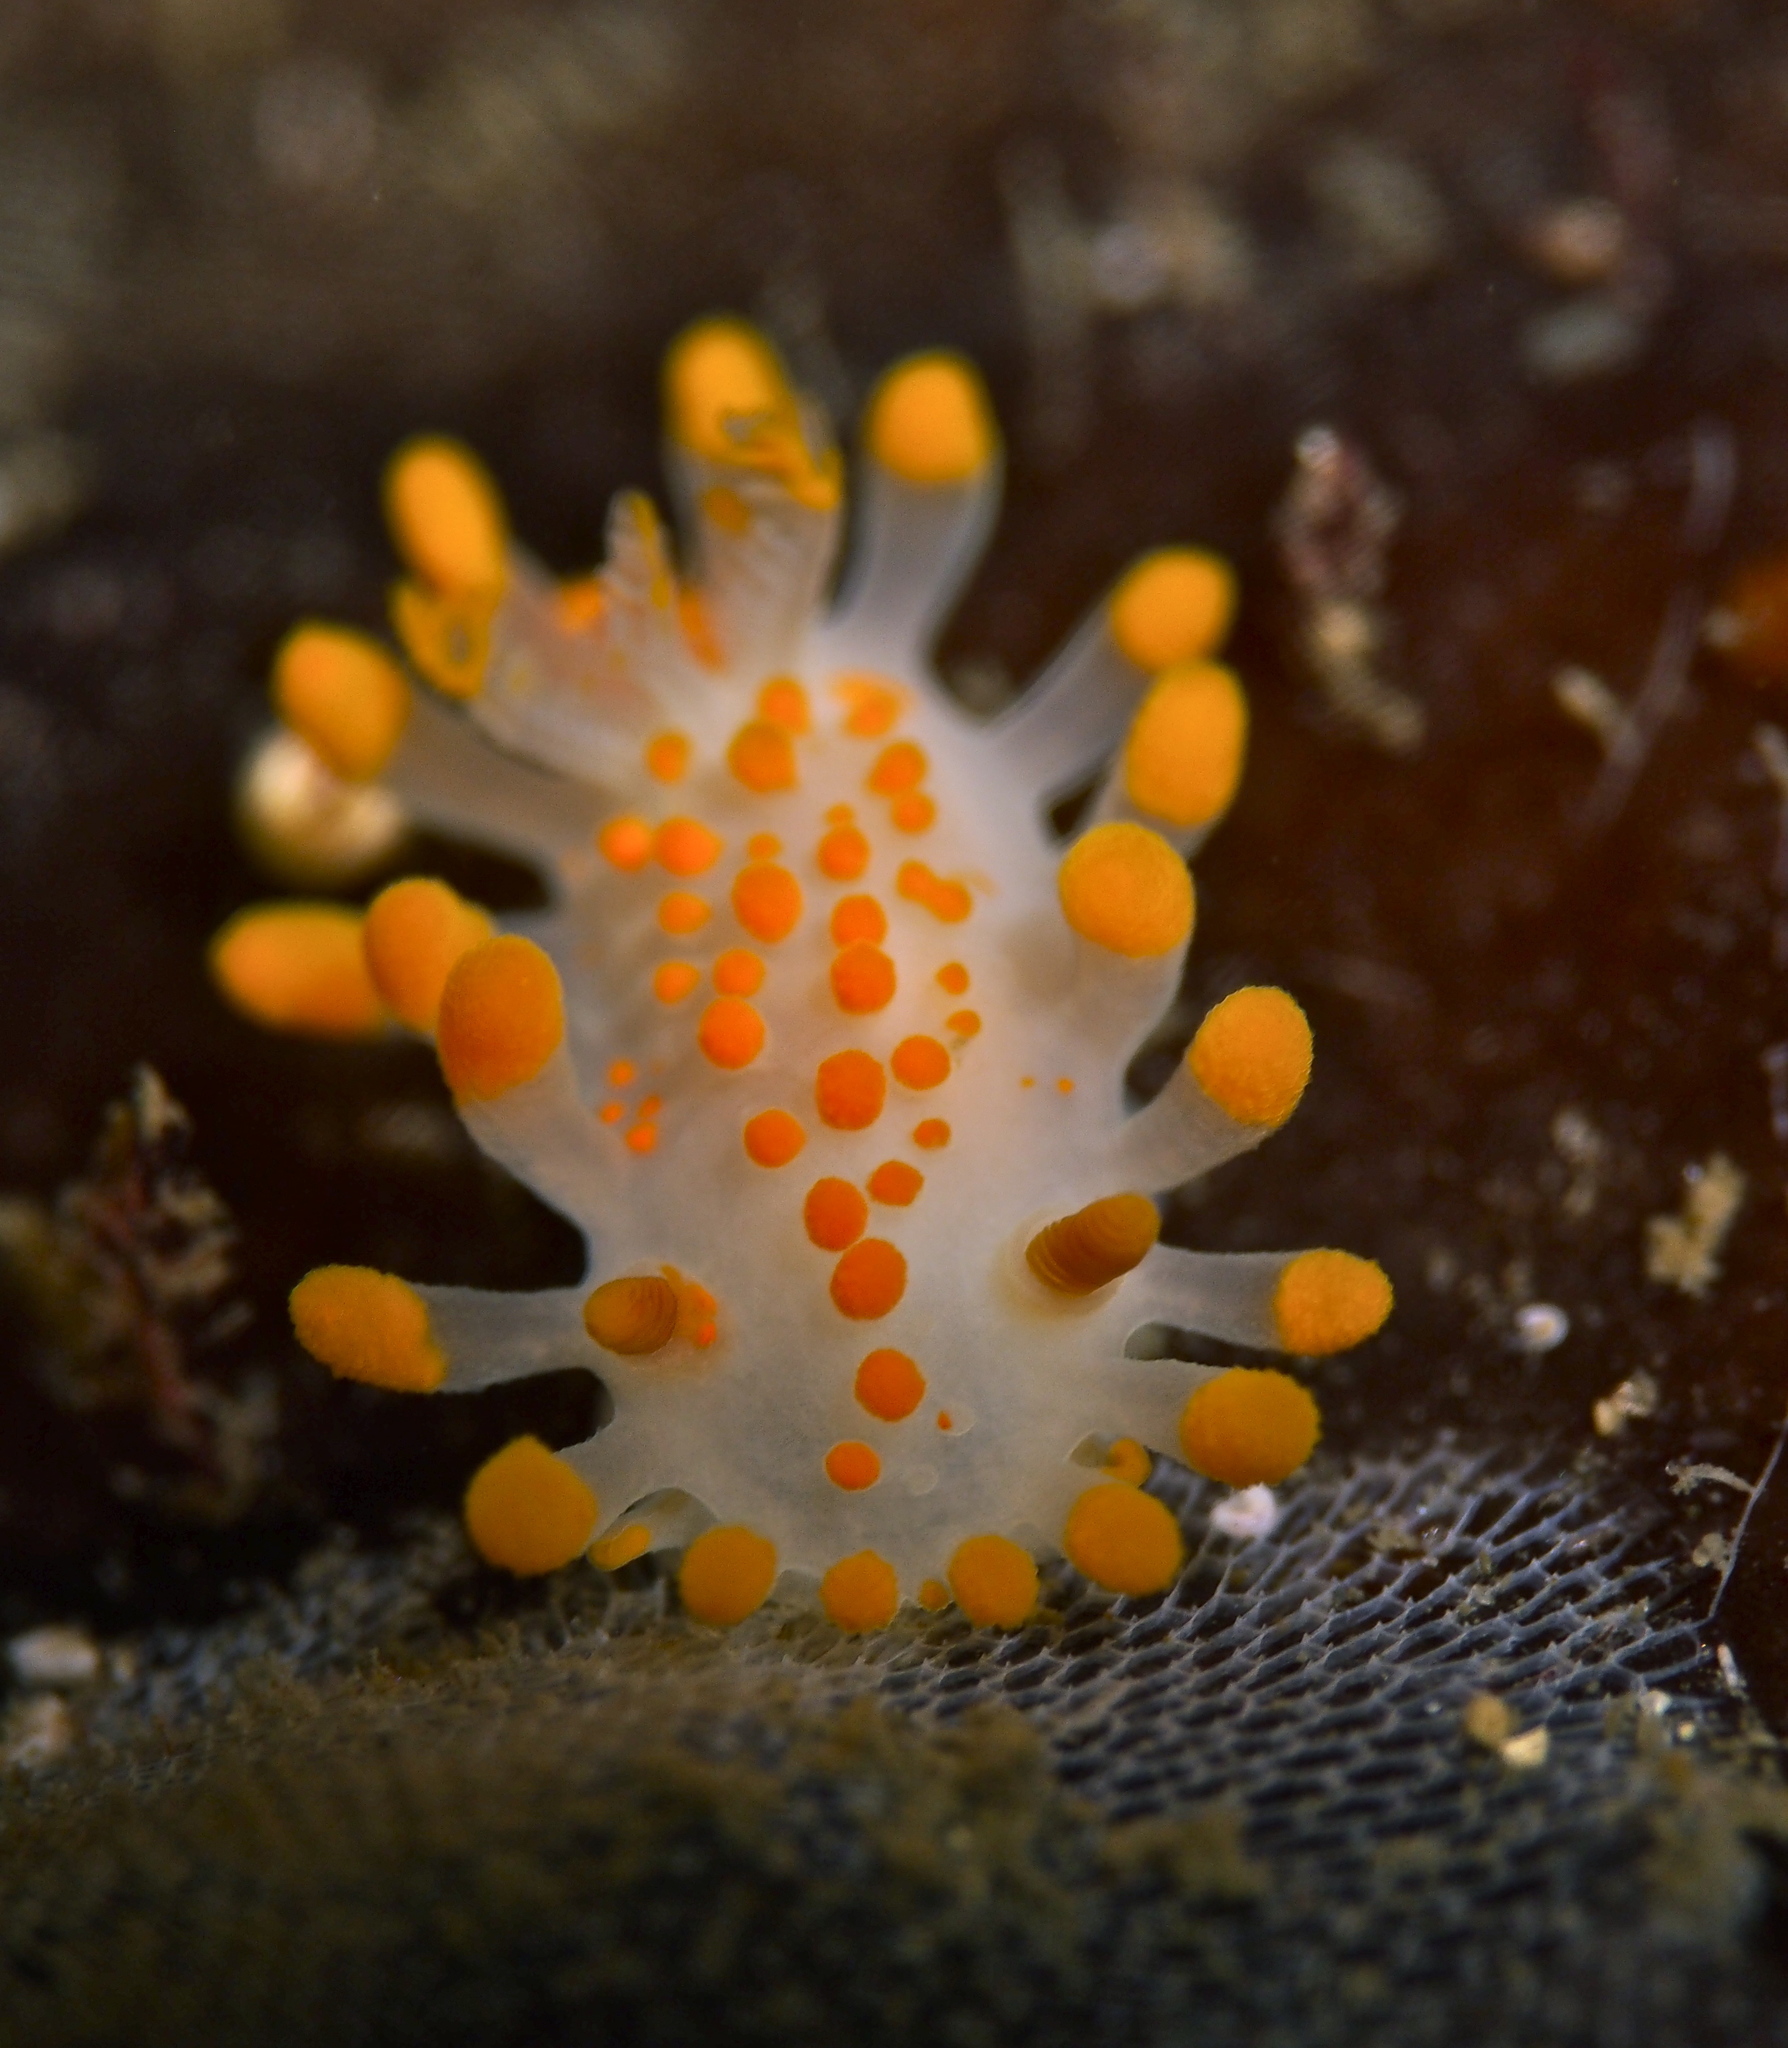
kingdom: Animalia
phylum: Mollusca
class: Gastropoda
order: Nudibranchia
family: Polyceridae
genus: Limacia
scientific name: Limacia clavigera
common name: Orange-clubbed sea slug
